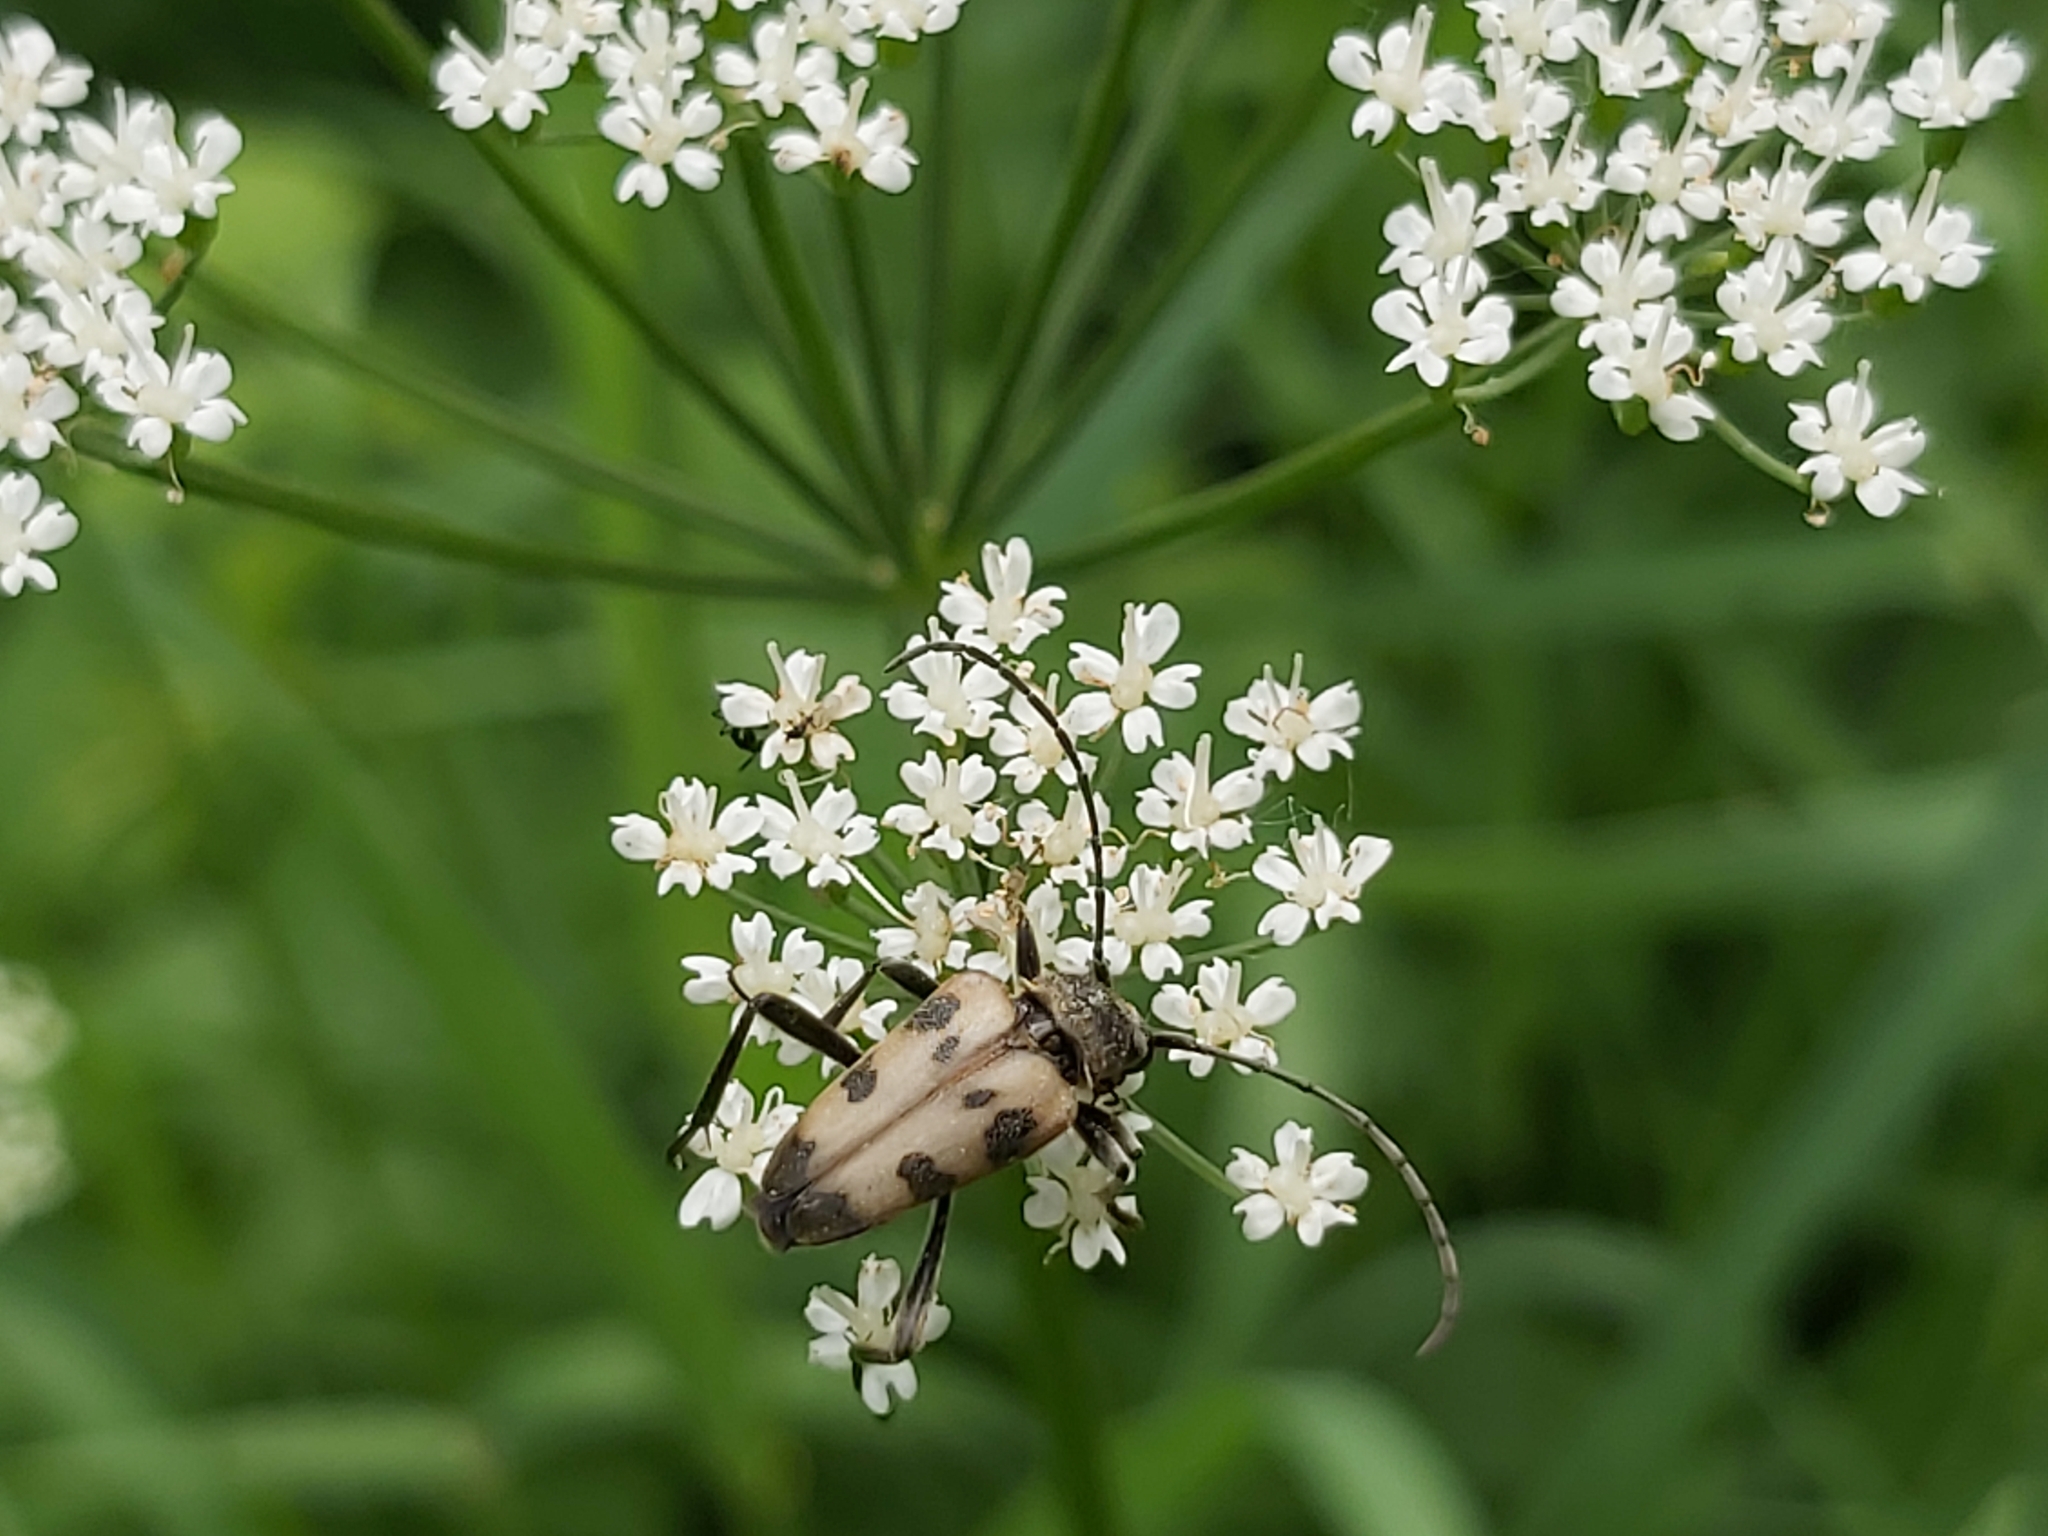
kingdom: Animalia
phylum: Arthropoda
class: Insecta
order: Coleoptera
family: Cerambycidae
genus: Pachytodes
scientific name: Pachytodes cerambyciformis
